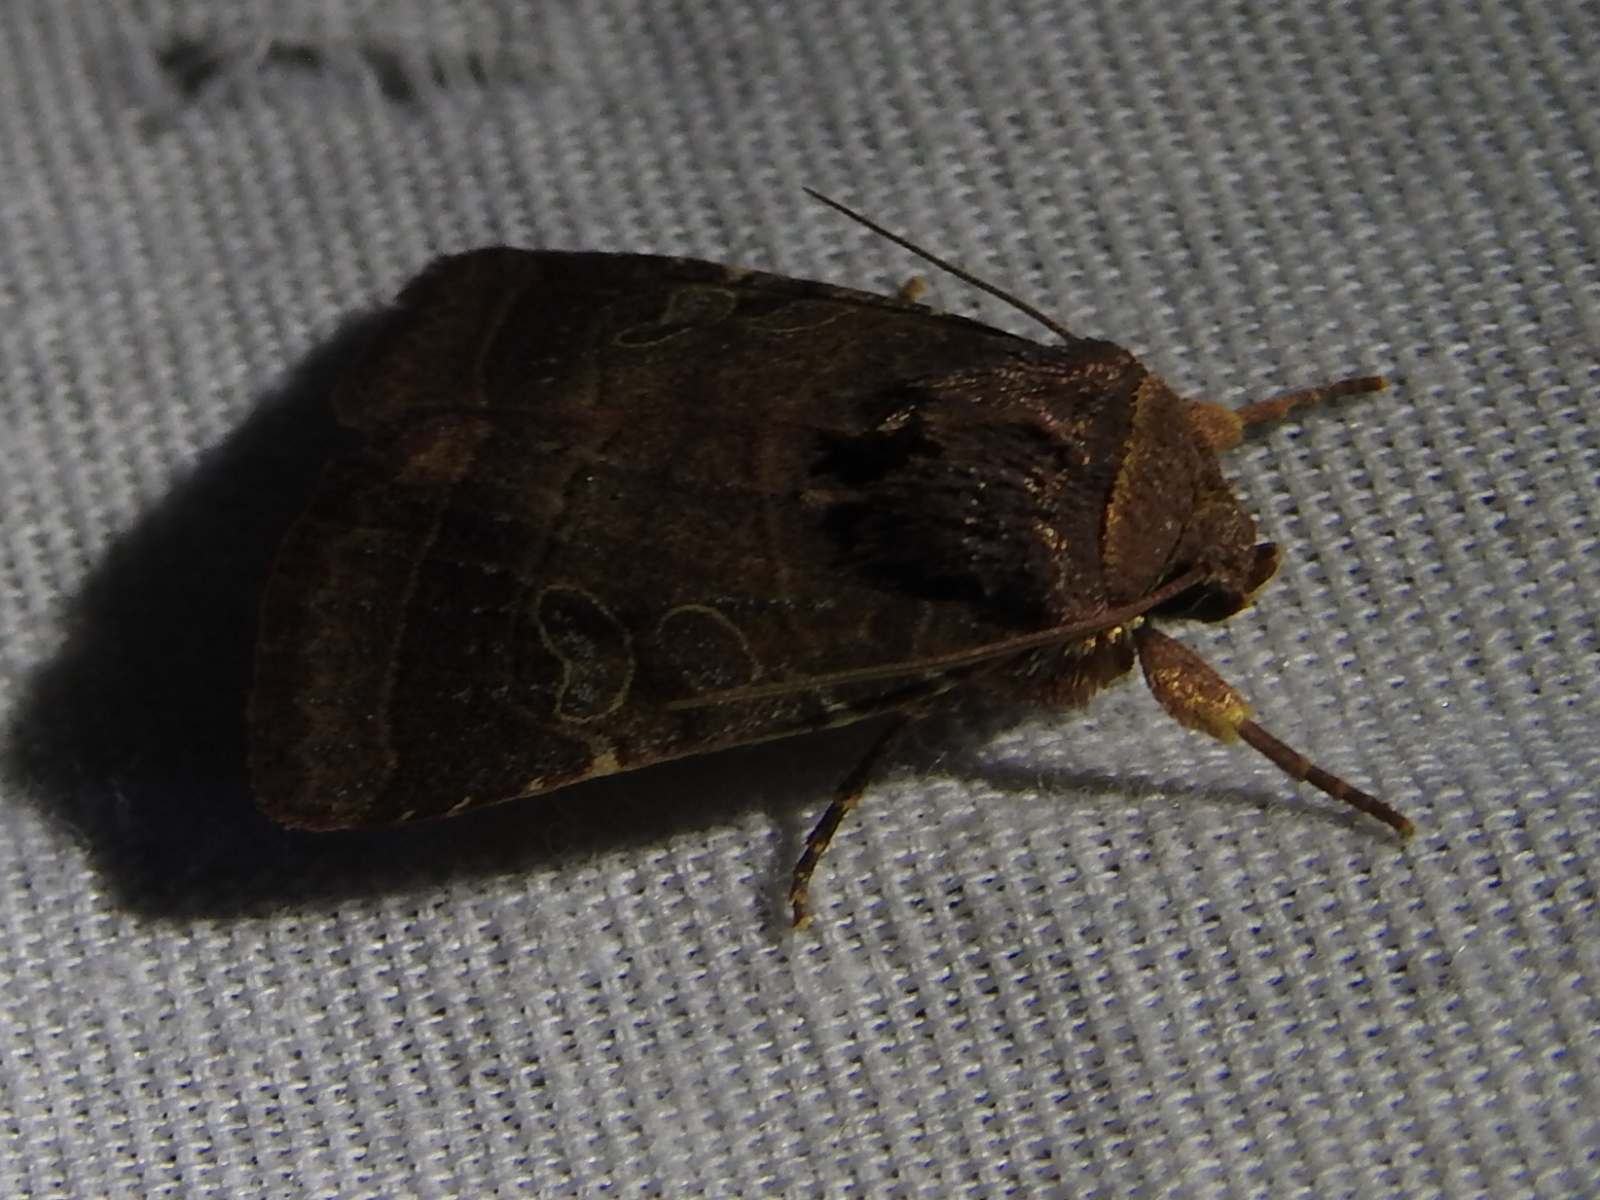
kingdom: Animalia
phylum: Arthropoda
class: Insecta
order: Lepidoptera
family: Noctuidae
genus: Orthodes
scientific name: Orthodes furtiva
